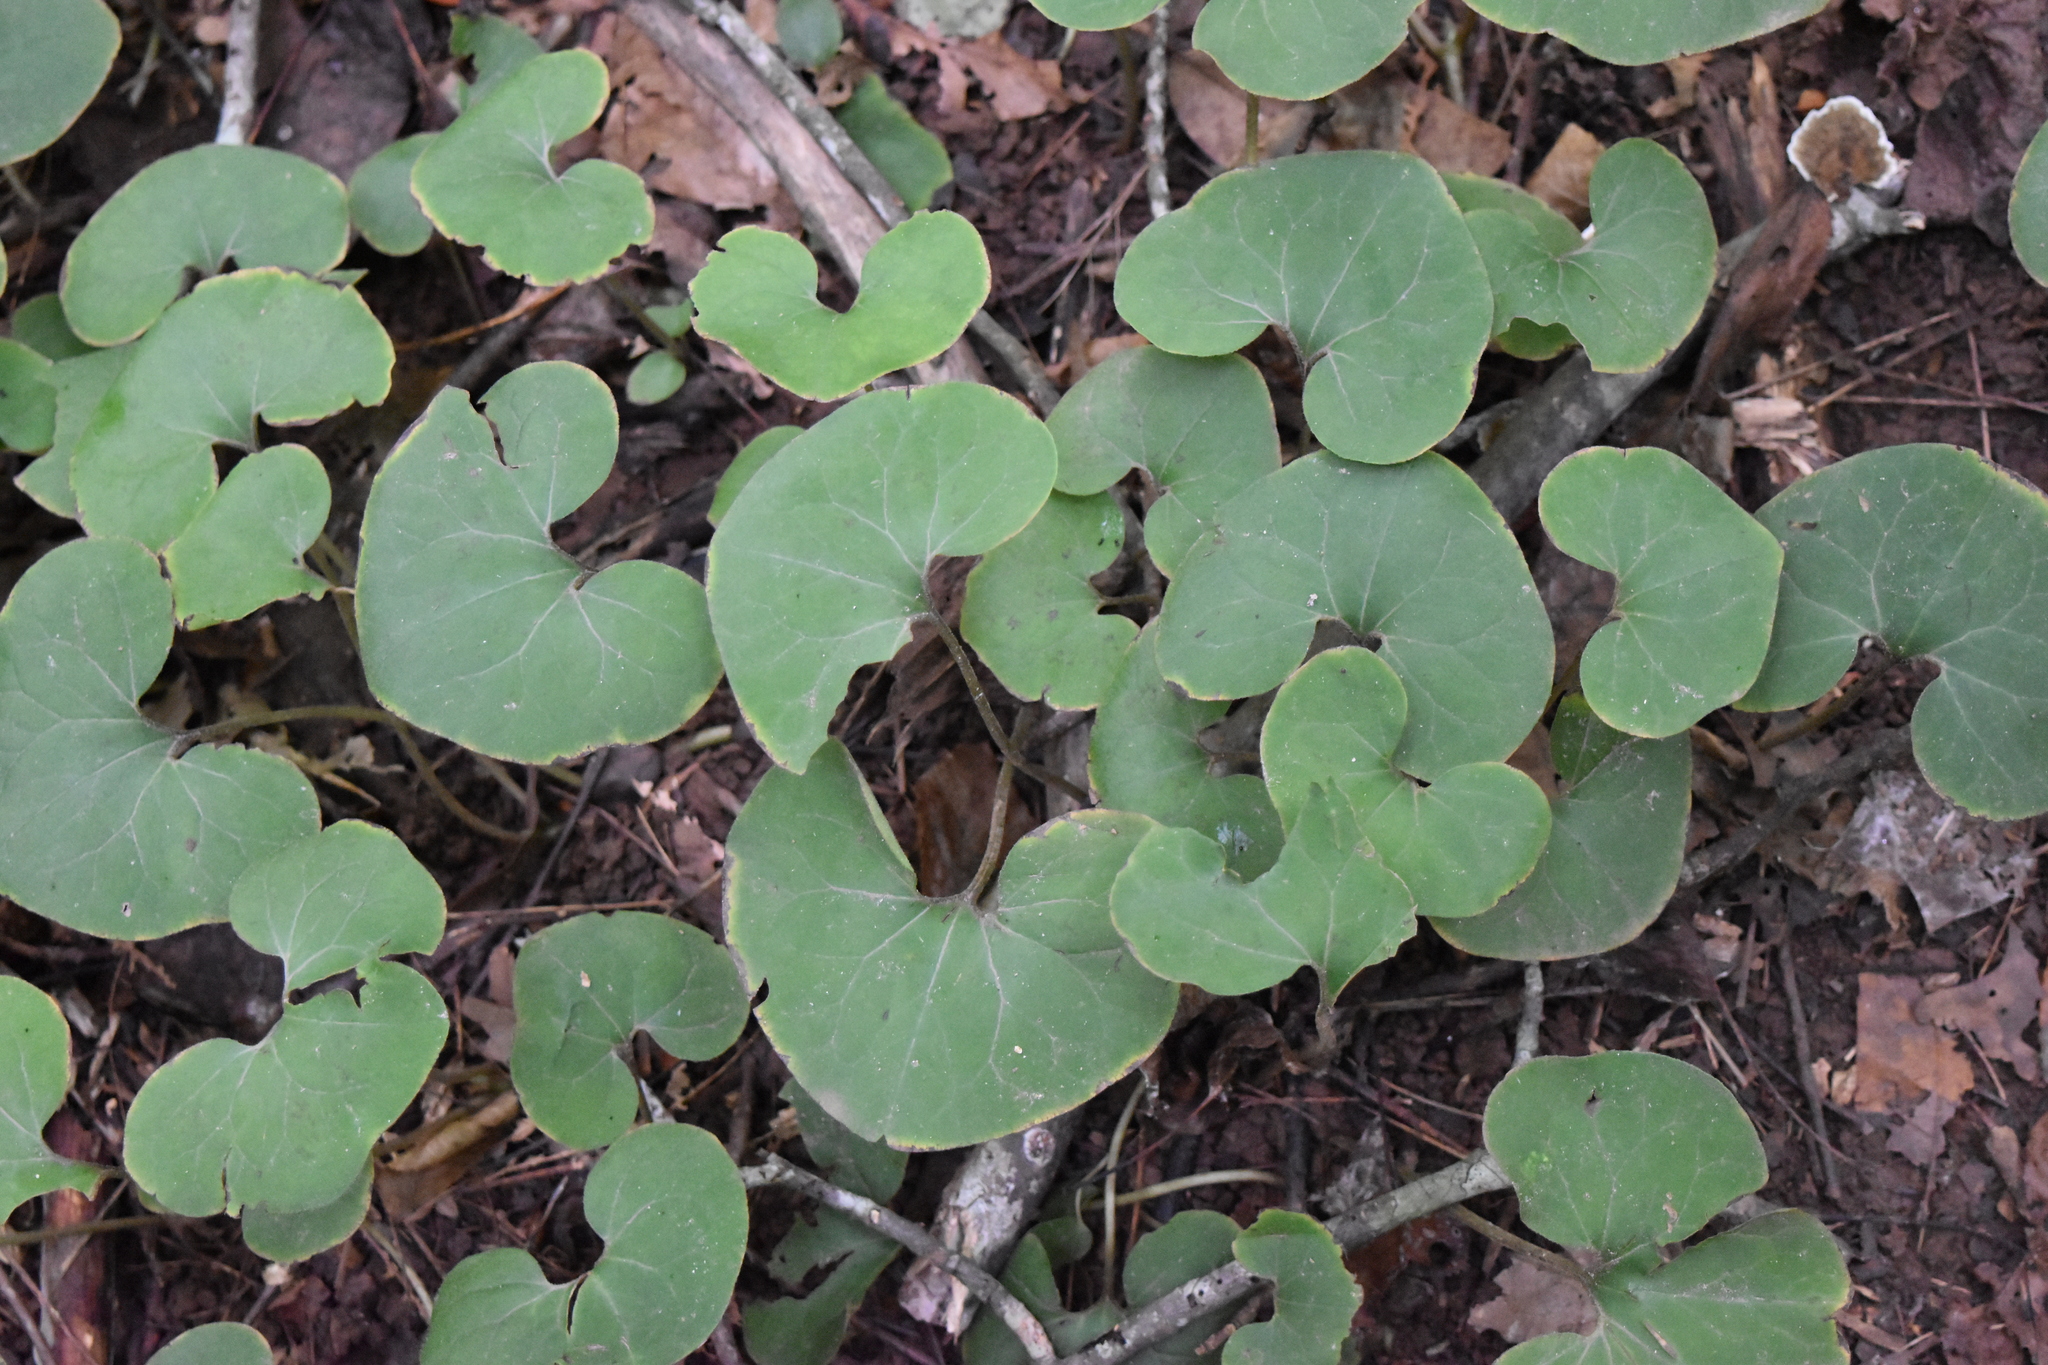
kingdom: Plantae
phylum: Tracheophyta
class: Magnoliopsida
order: Piperales
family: Aristolochiaceae
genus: Asarum
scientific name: Asarum canadense
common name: Wild ginger
